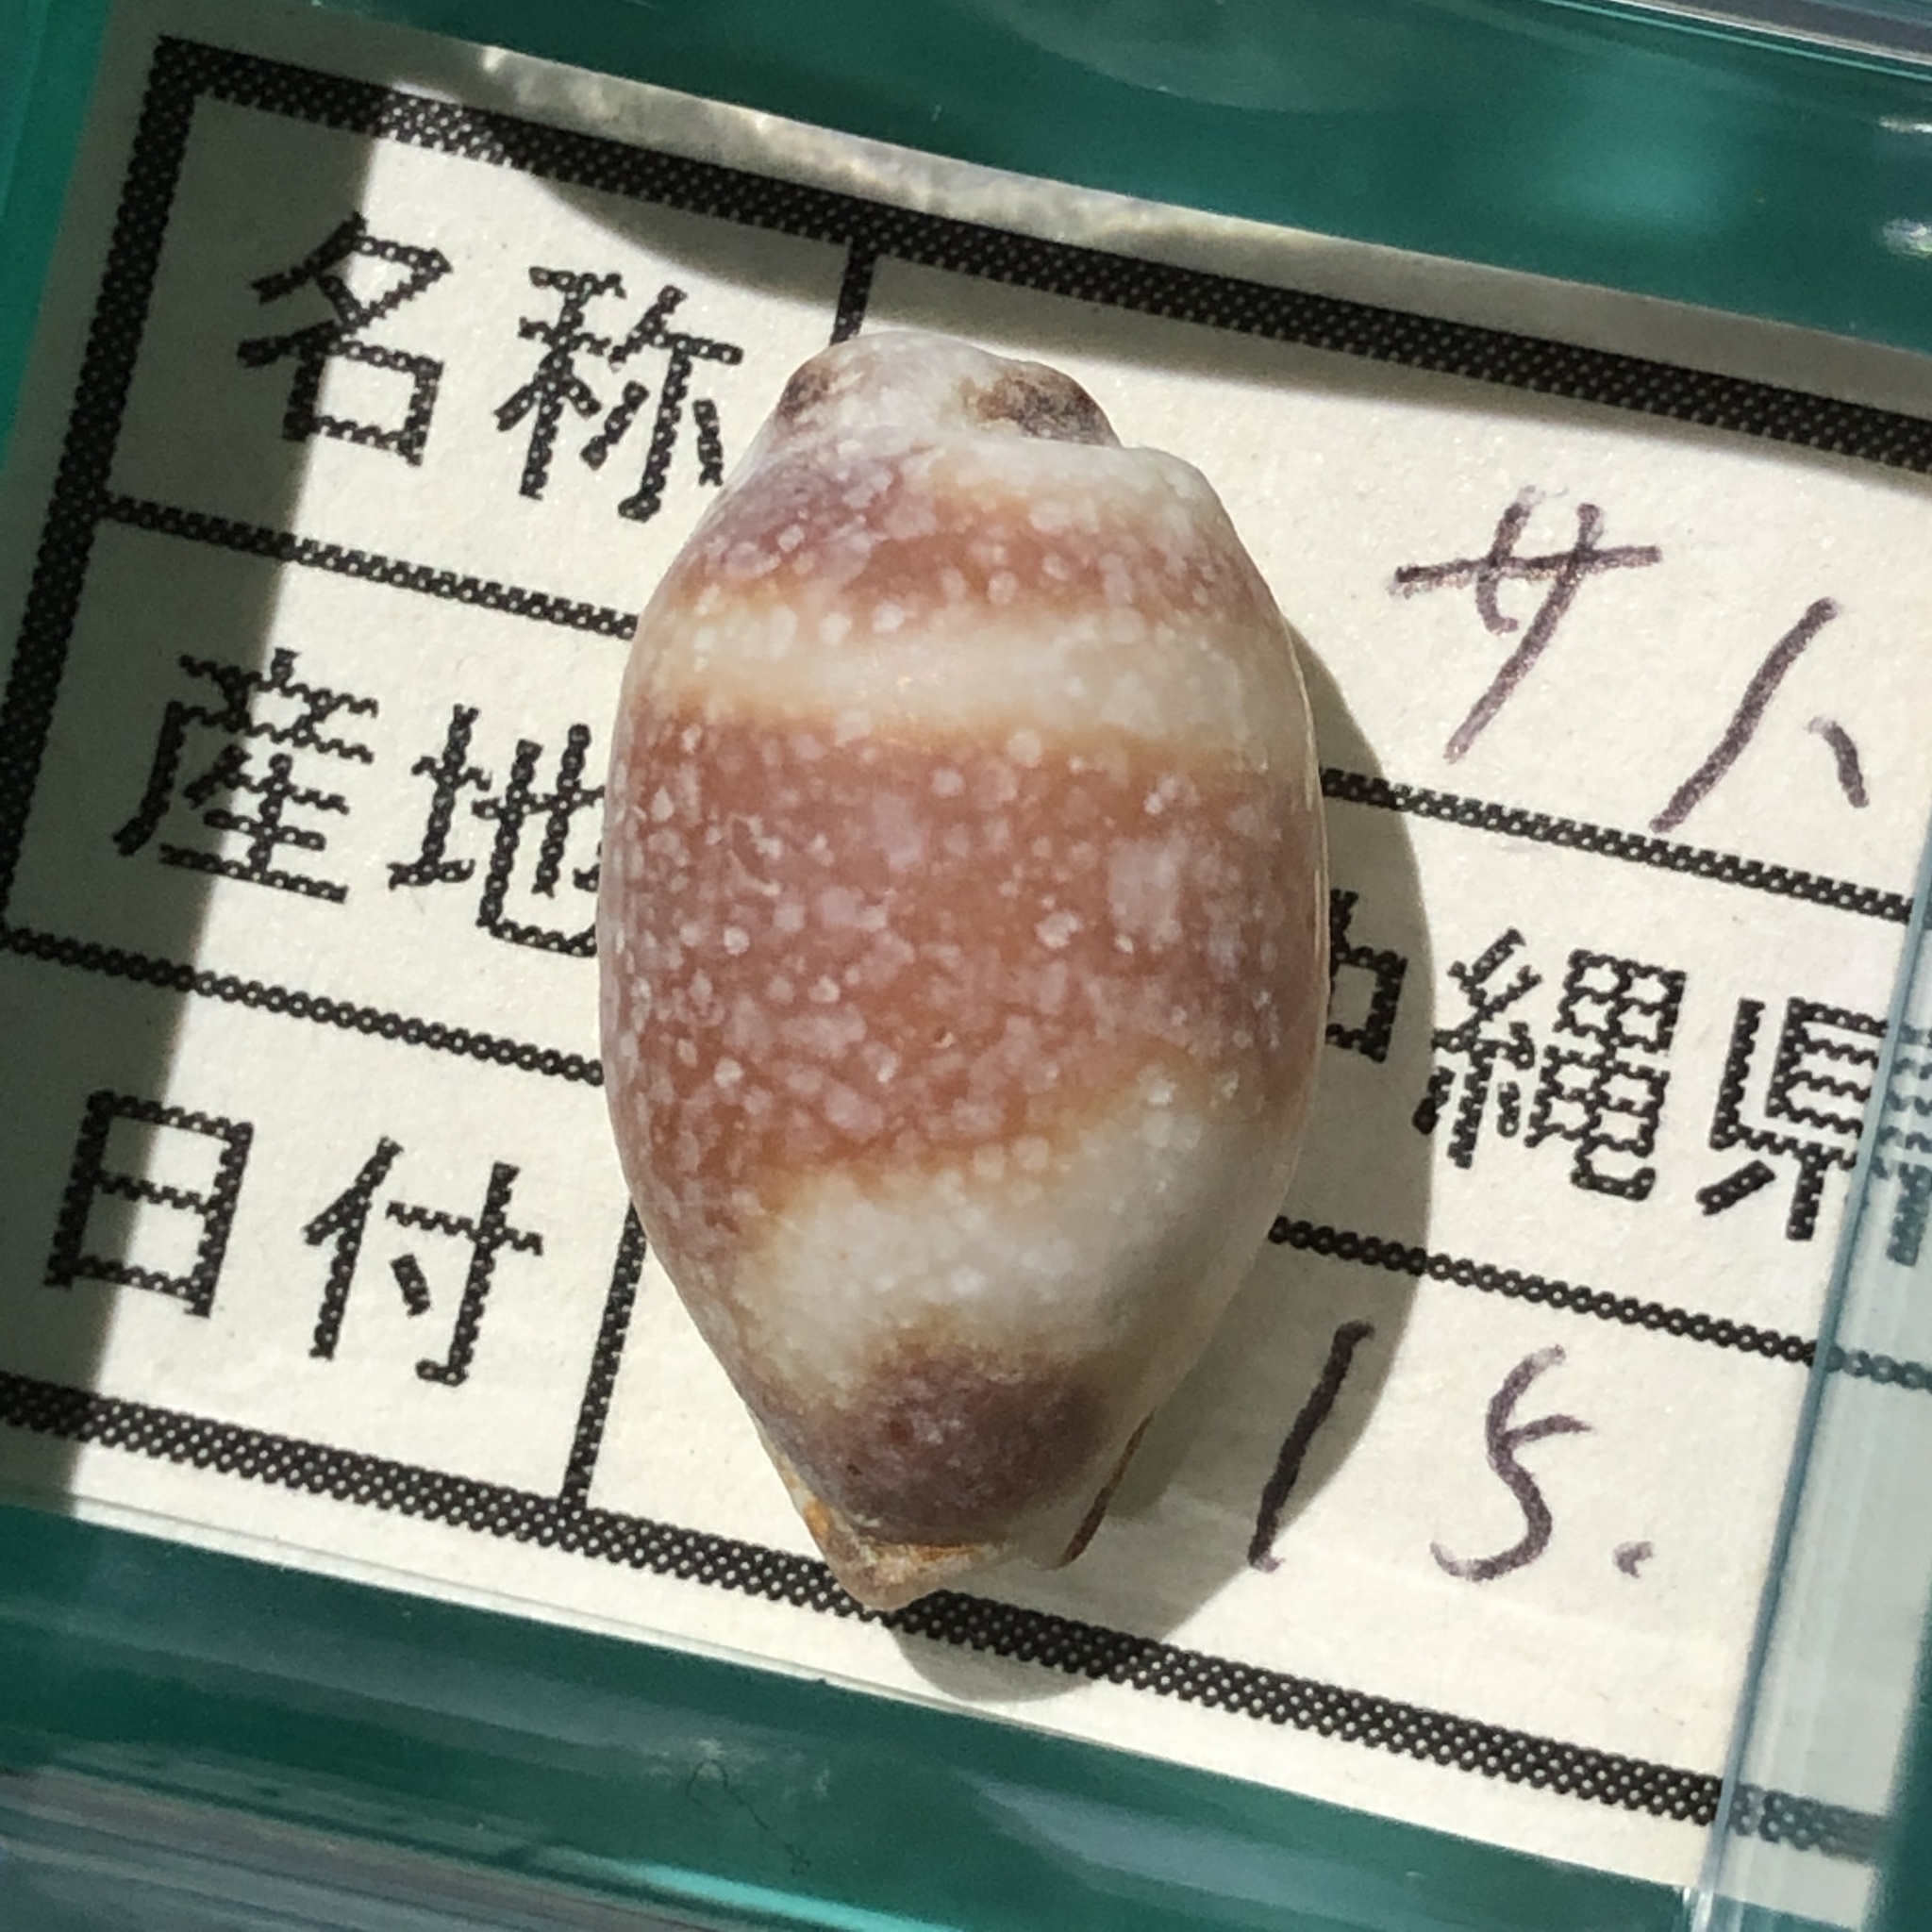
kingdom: Animalia
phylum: Mollusca
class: Gastropoda
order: Littorinimorpha
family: Cypraeidae
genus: Bistolida
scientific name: Bistolida hirundo
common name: Cowrie
